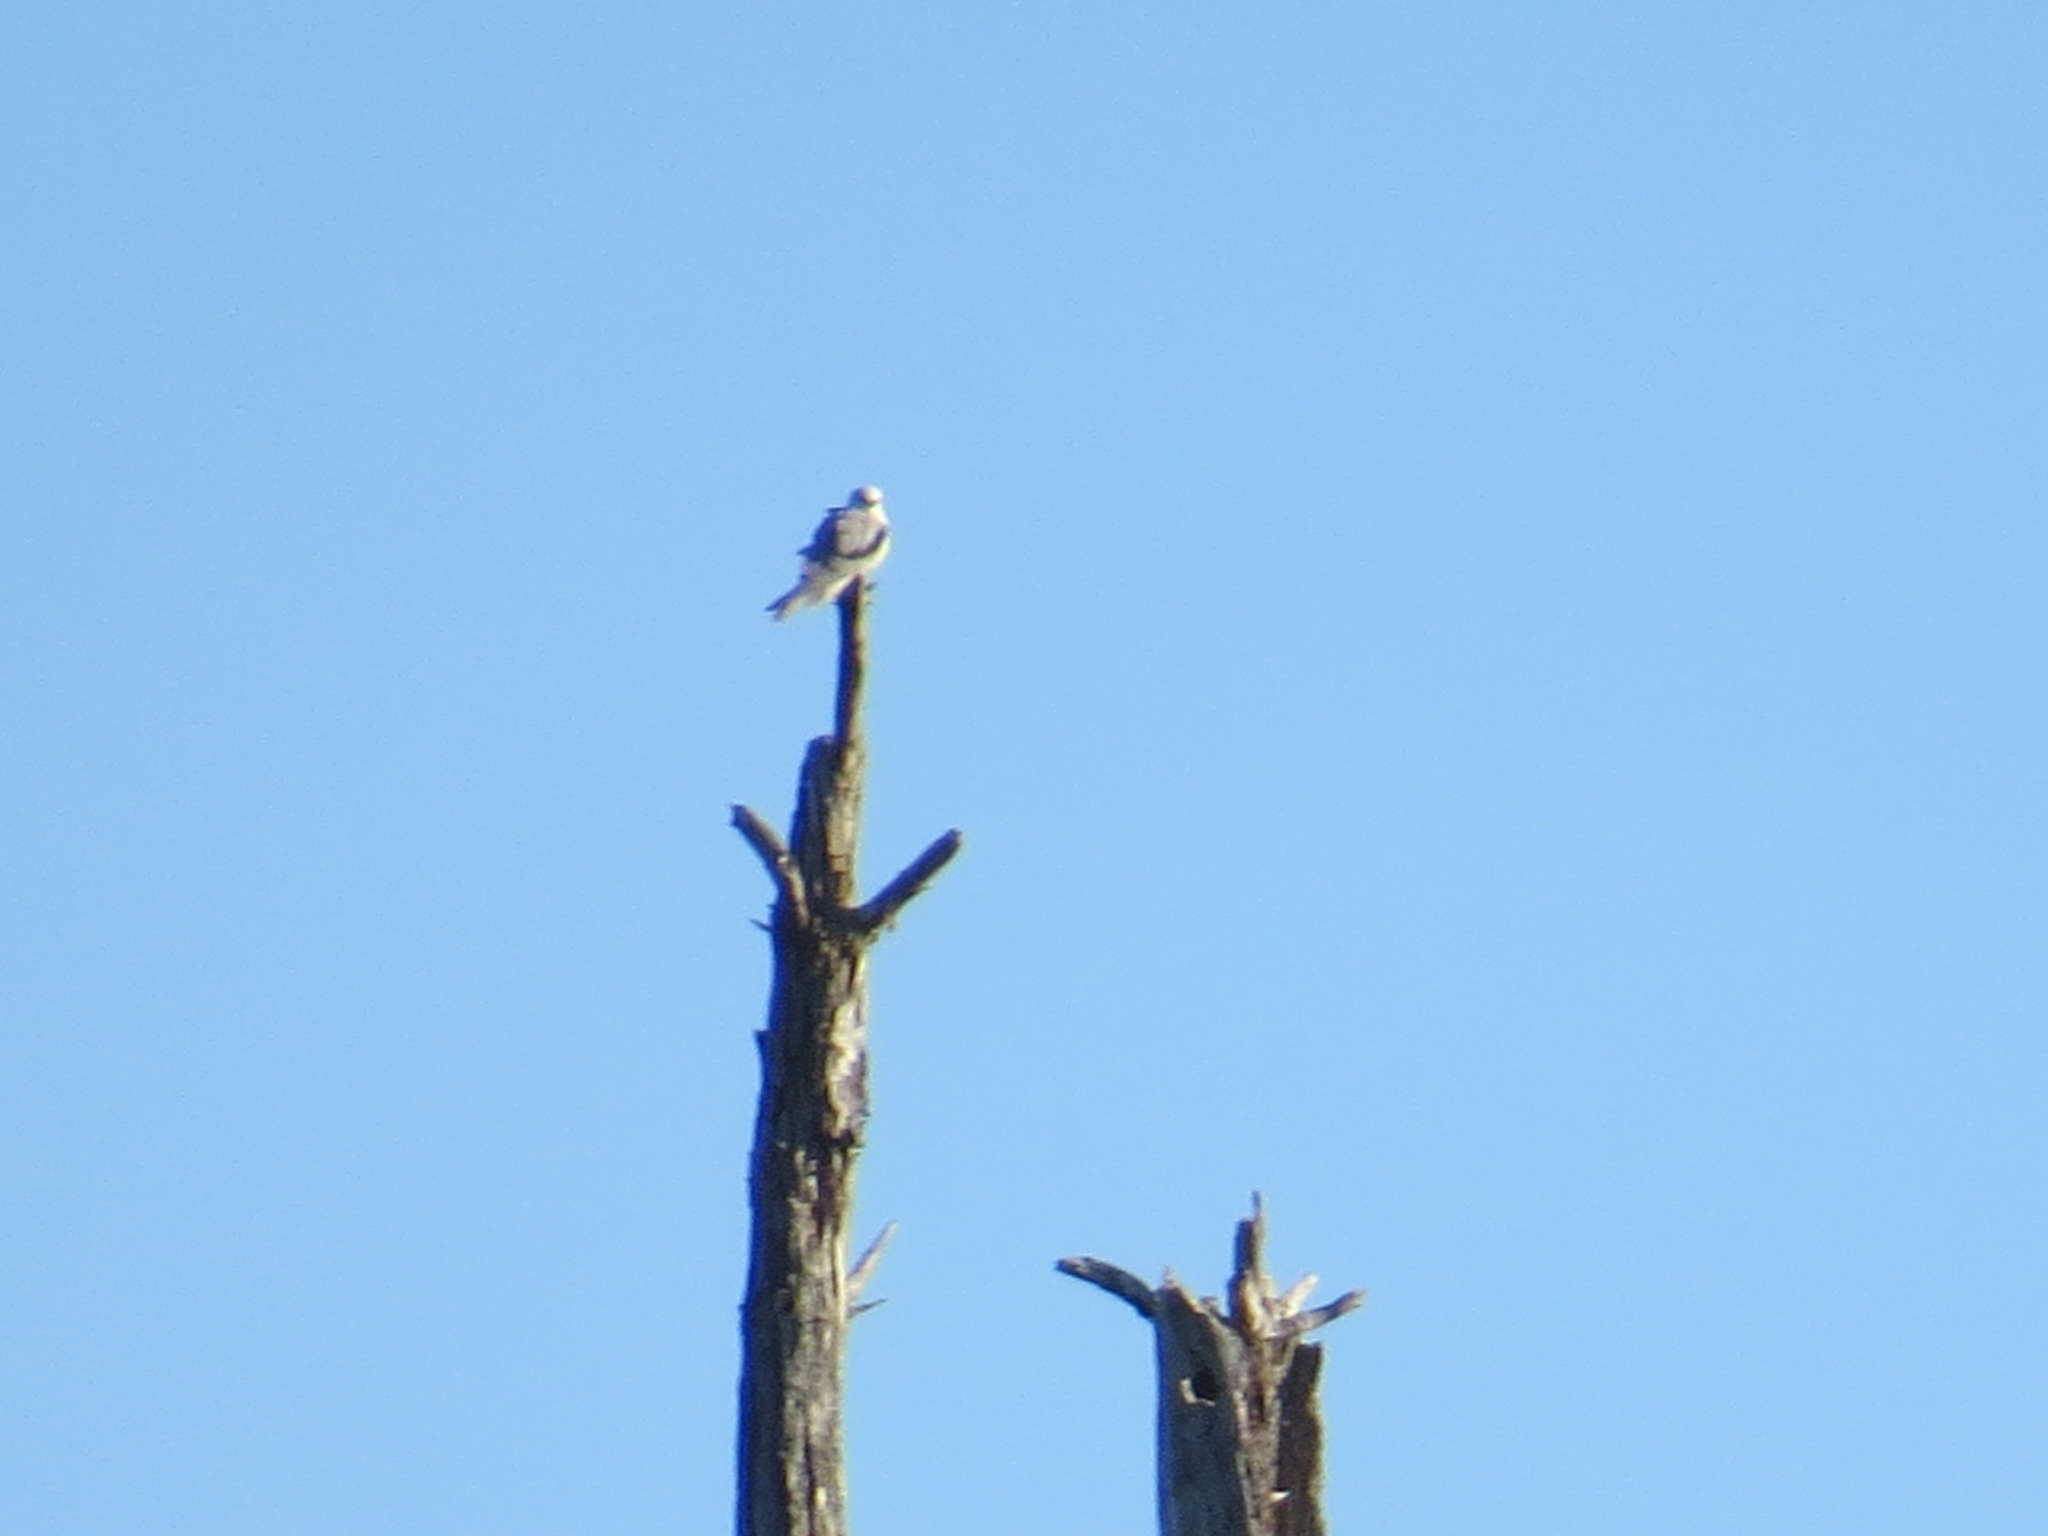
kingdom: Animalia
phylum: Chordata
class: Aves
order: Accipitriformes
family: Accipitridae
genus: Elanus
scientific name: Elanus leucurus
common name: White-tailed kite
